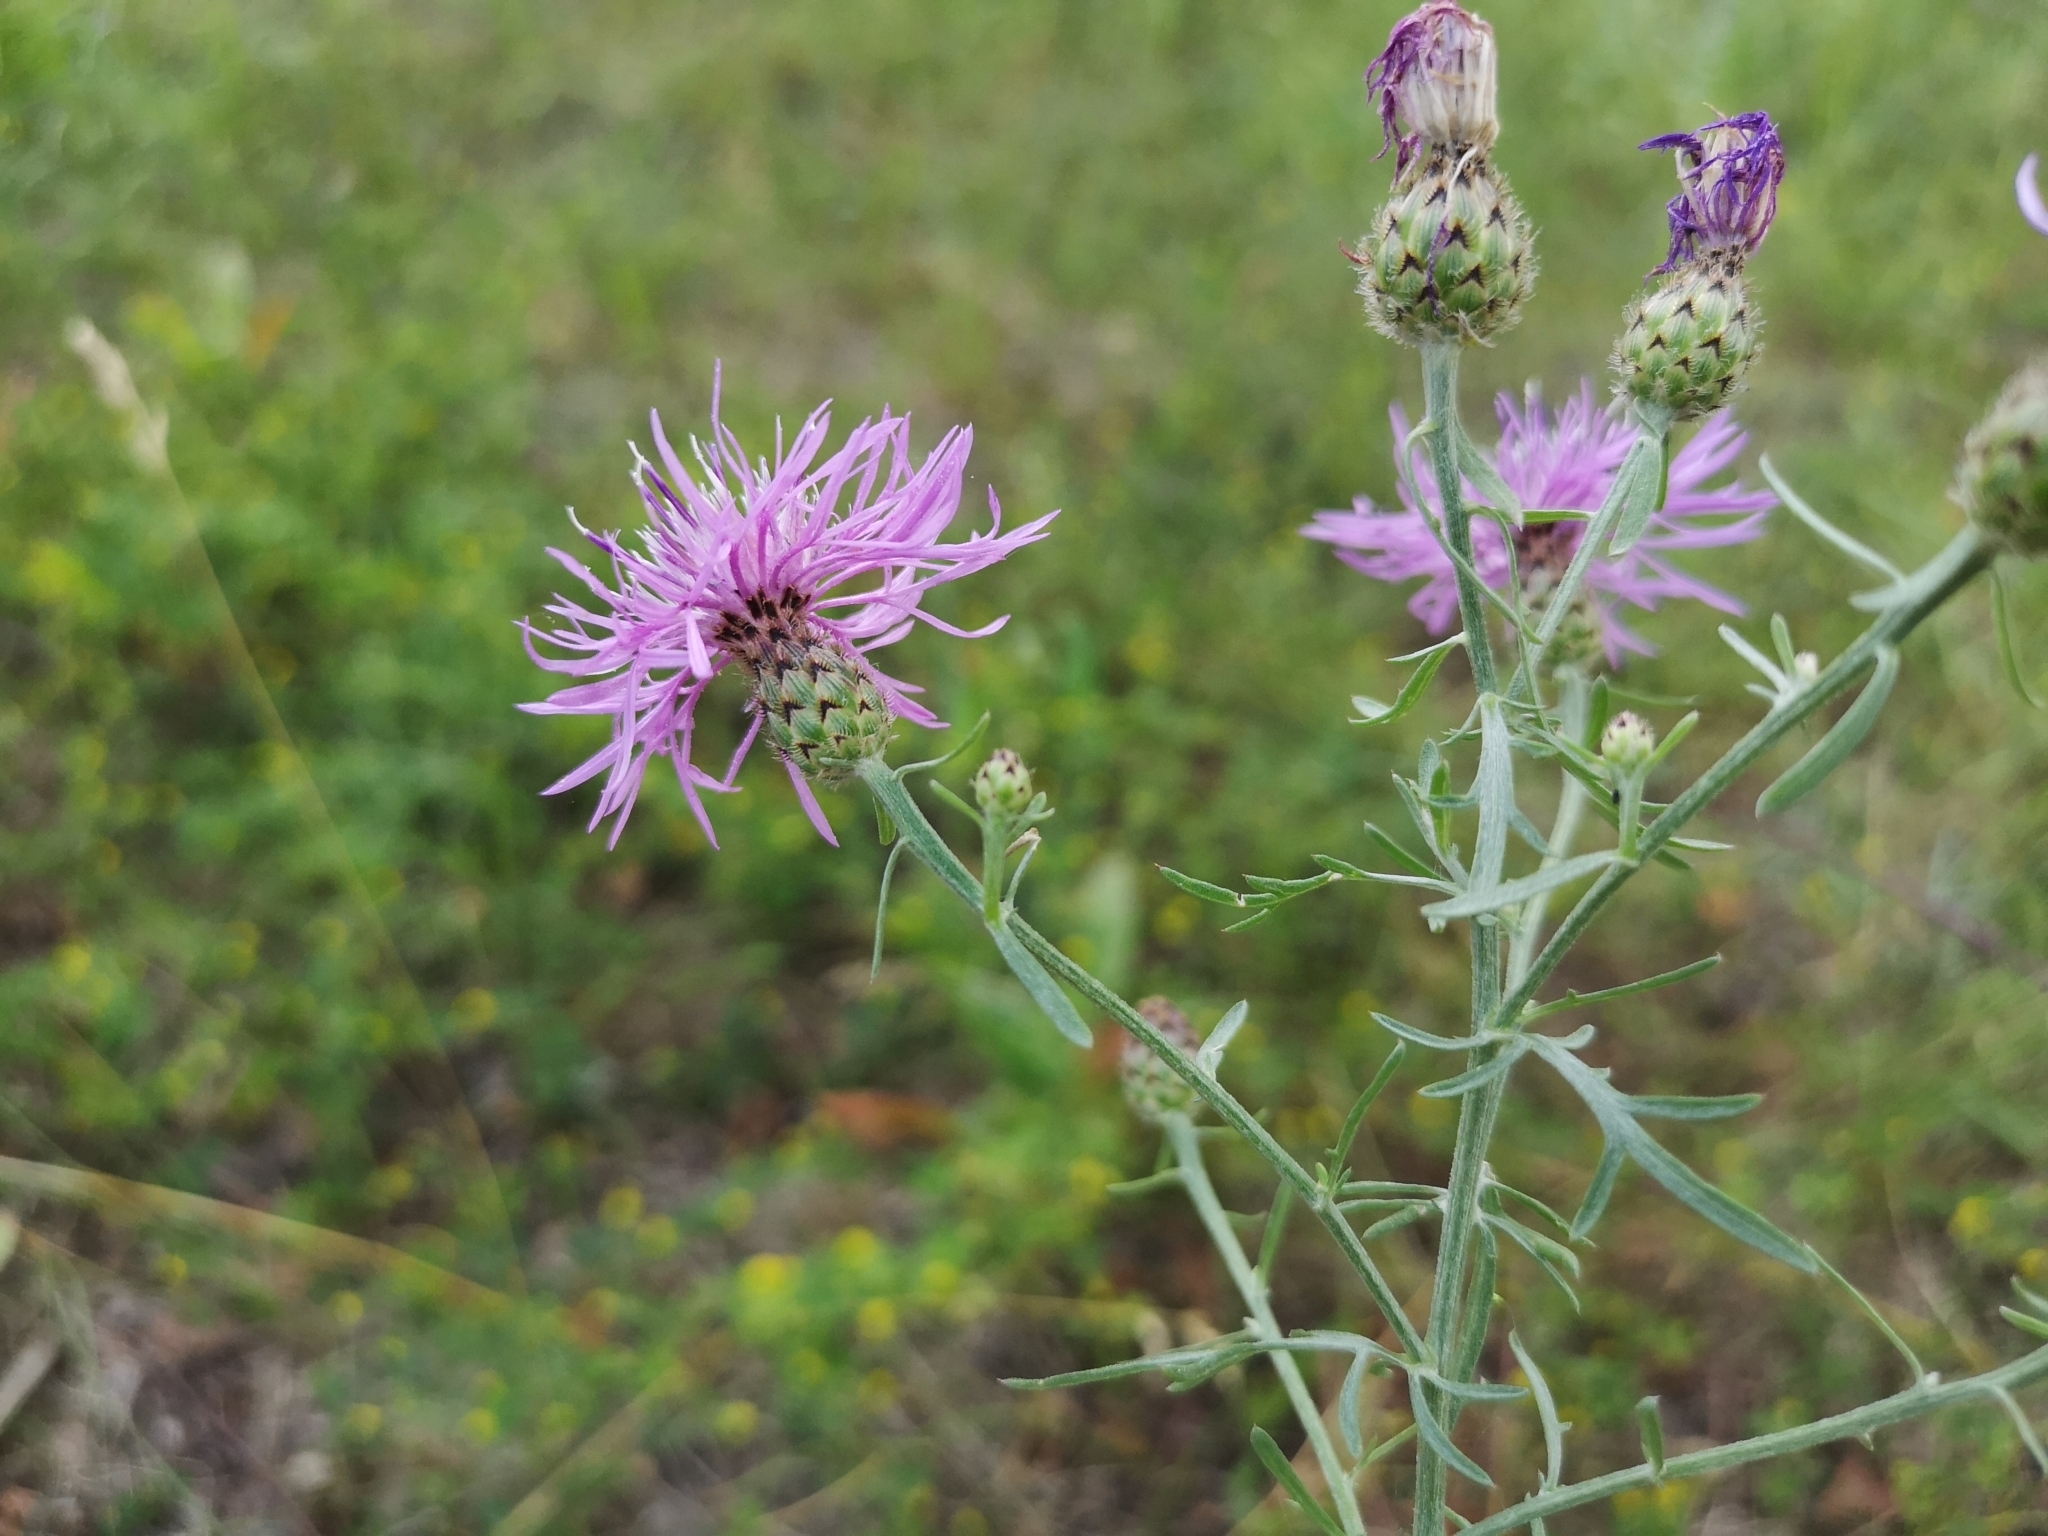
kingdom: Plantae
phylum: Tracheophyta
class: Magnoliopsida
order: Asterales
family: Asteraceae
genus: Centaurea
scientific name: Centaurea stoebe
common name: Spotted knapweed
